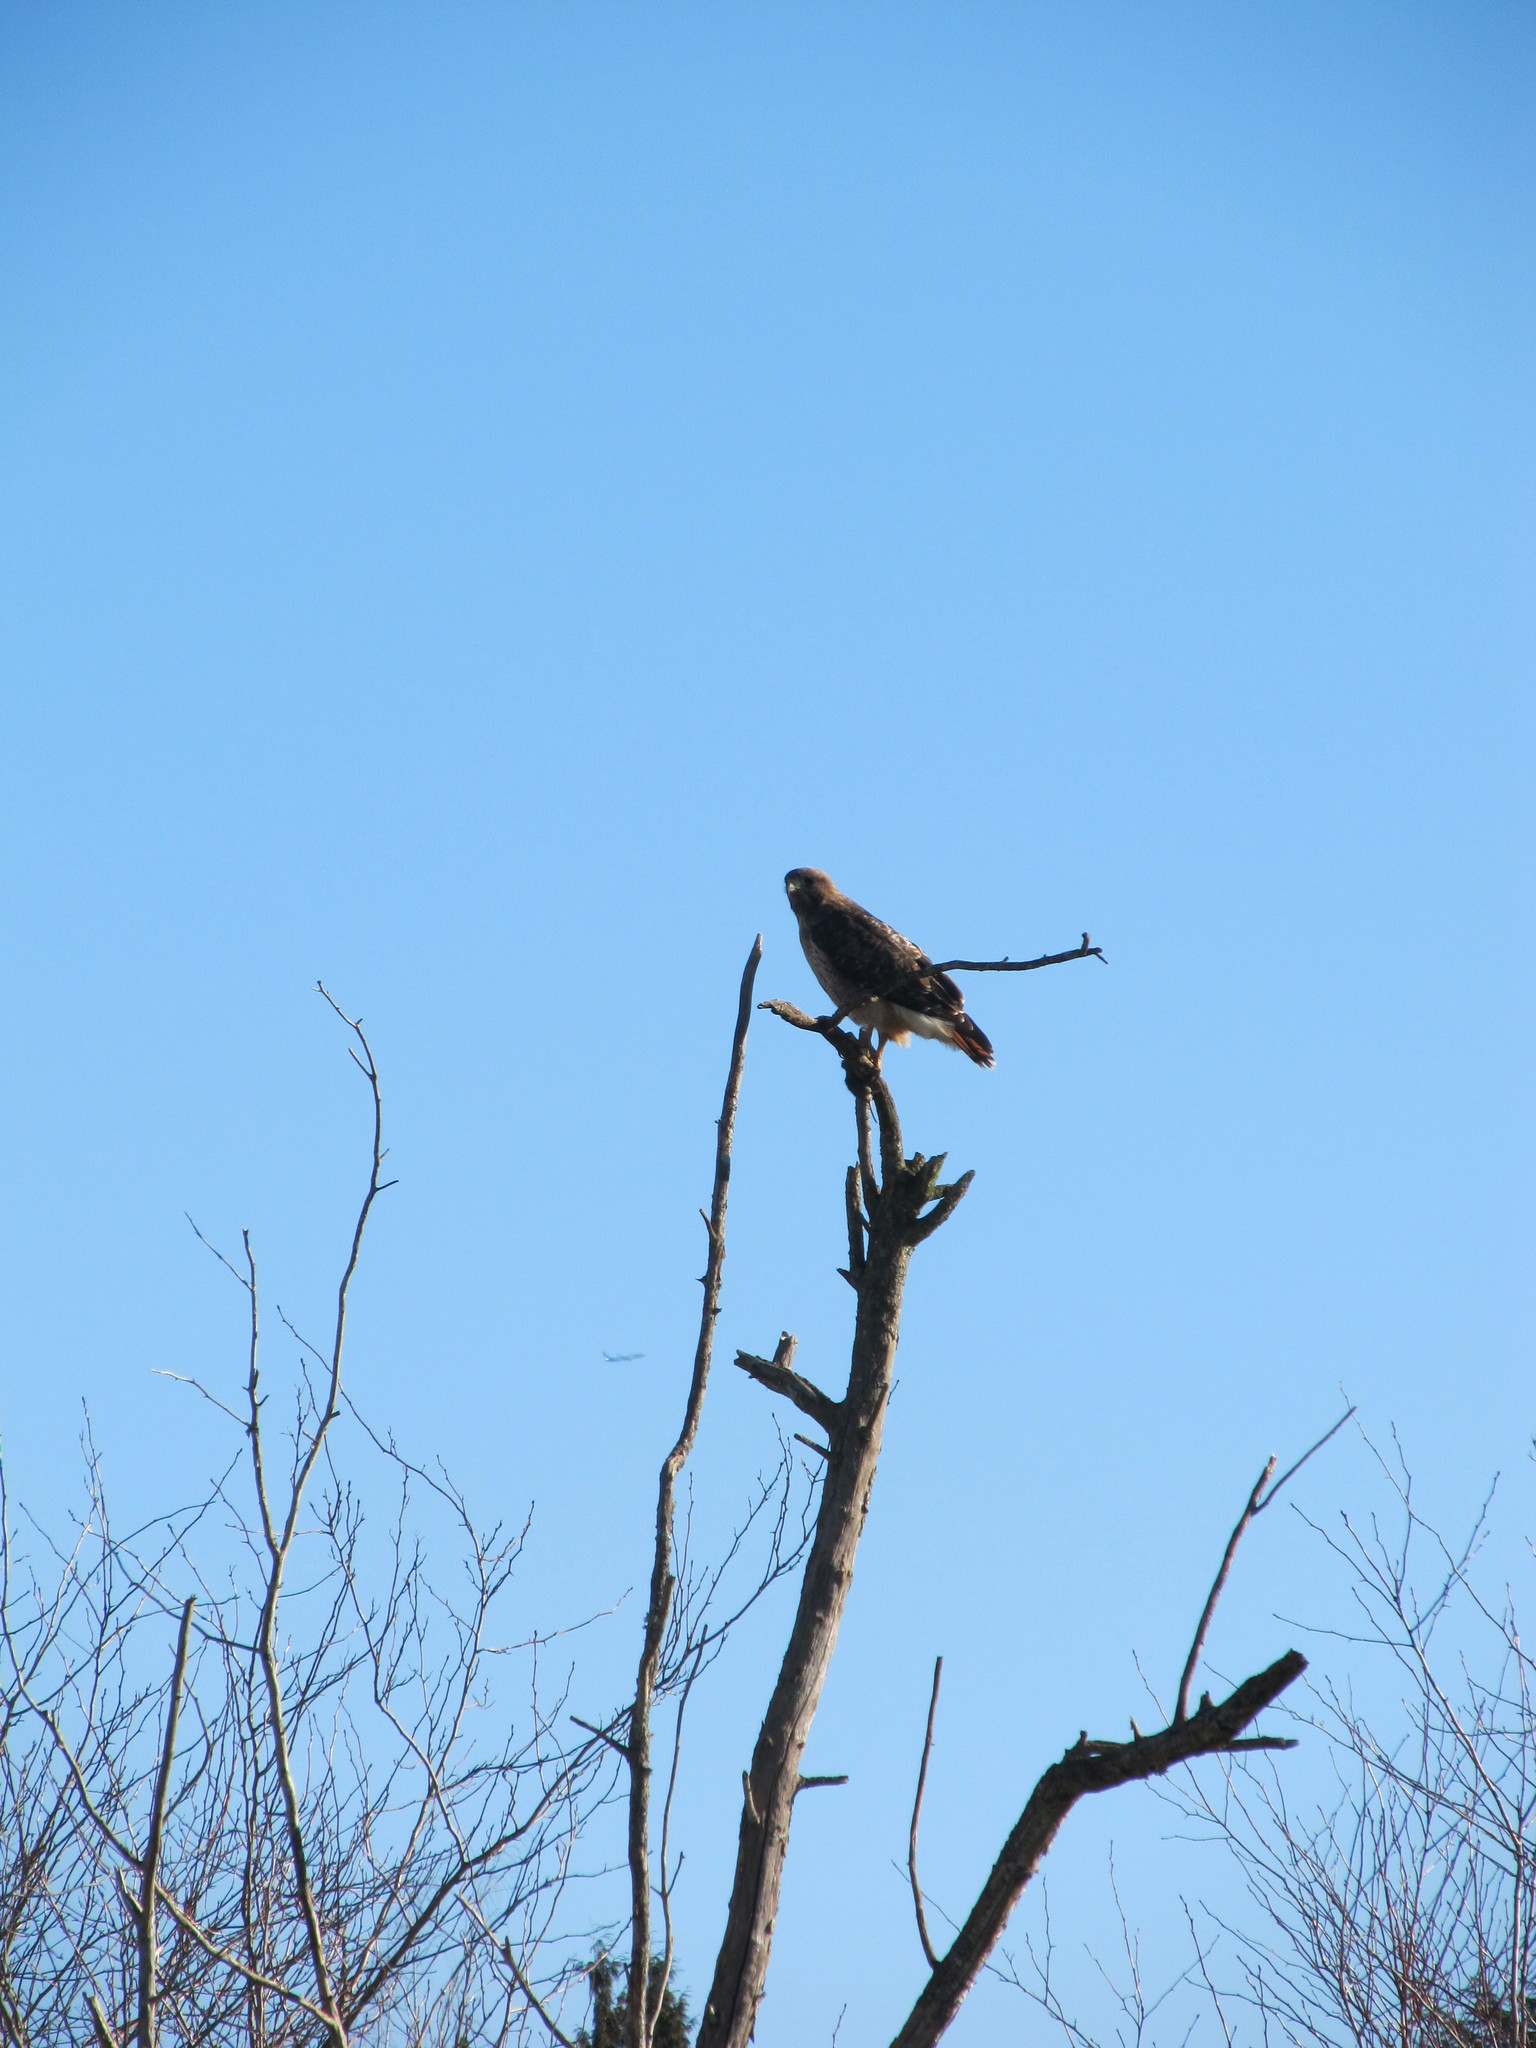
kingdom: Animalia
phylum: Chordata
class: Aves
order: Accipitriformes
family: Accipitridae
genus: Buteo
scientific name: Buteo jamaicensis
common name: Red-tailed hawk
